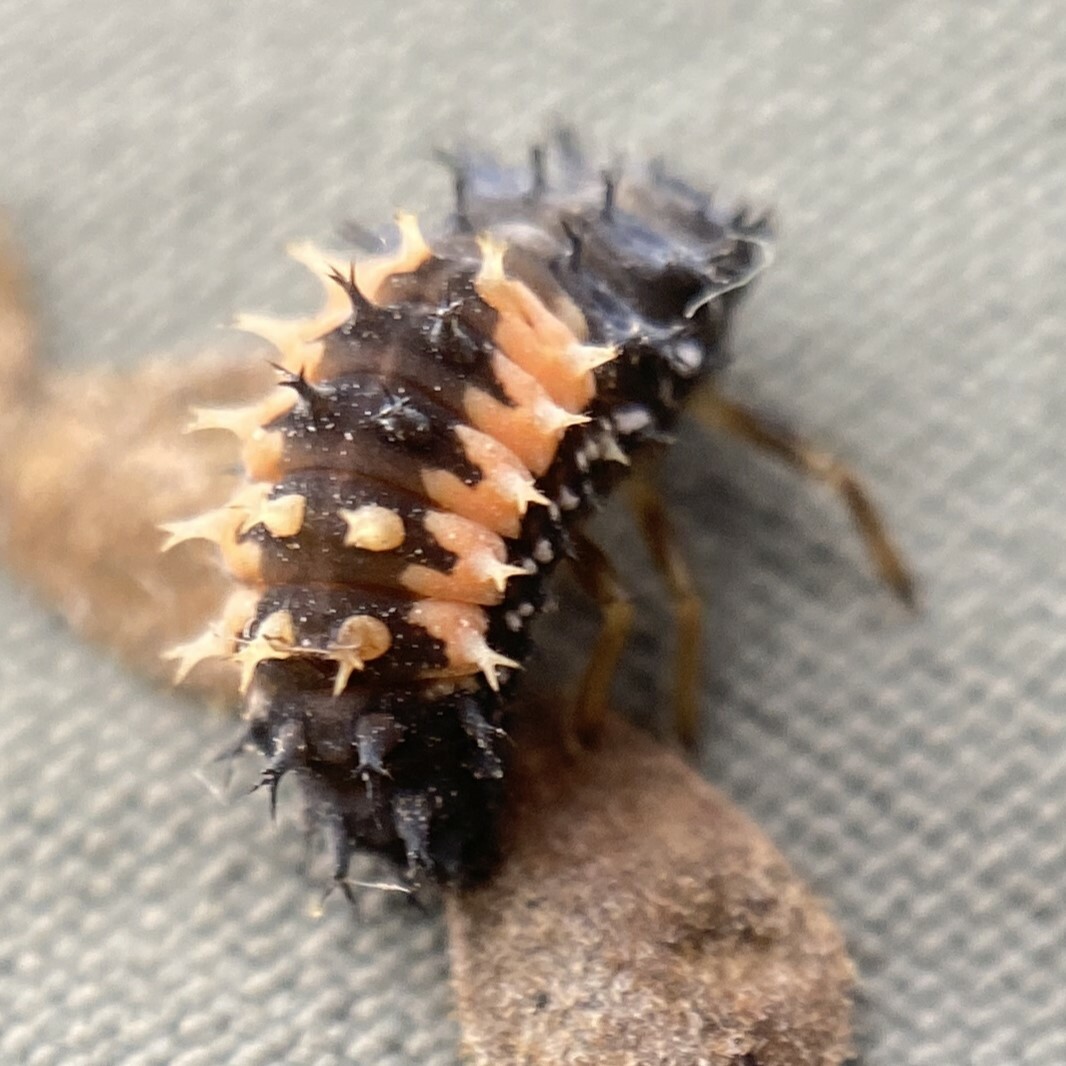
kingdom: Animalia
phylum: Arthropoda
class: Insecta
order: Coleoptera
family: Coccinellidae
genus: Harmonia
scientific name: Harmonia axyridis
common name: Harlequin ladybird
